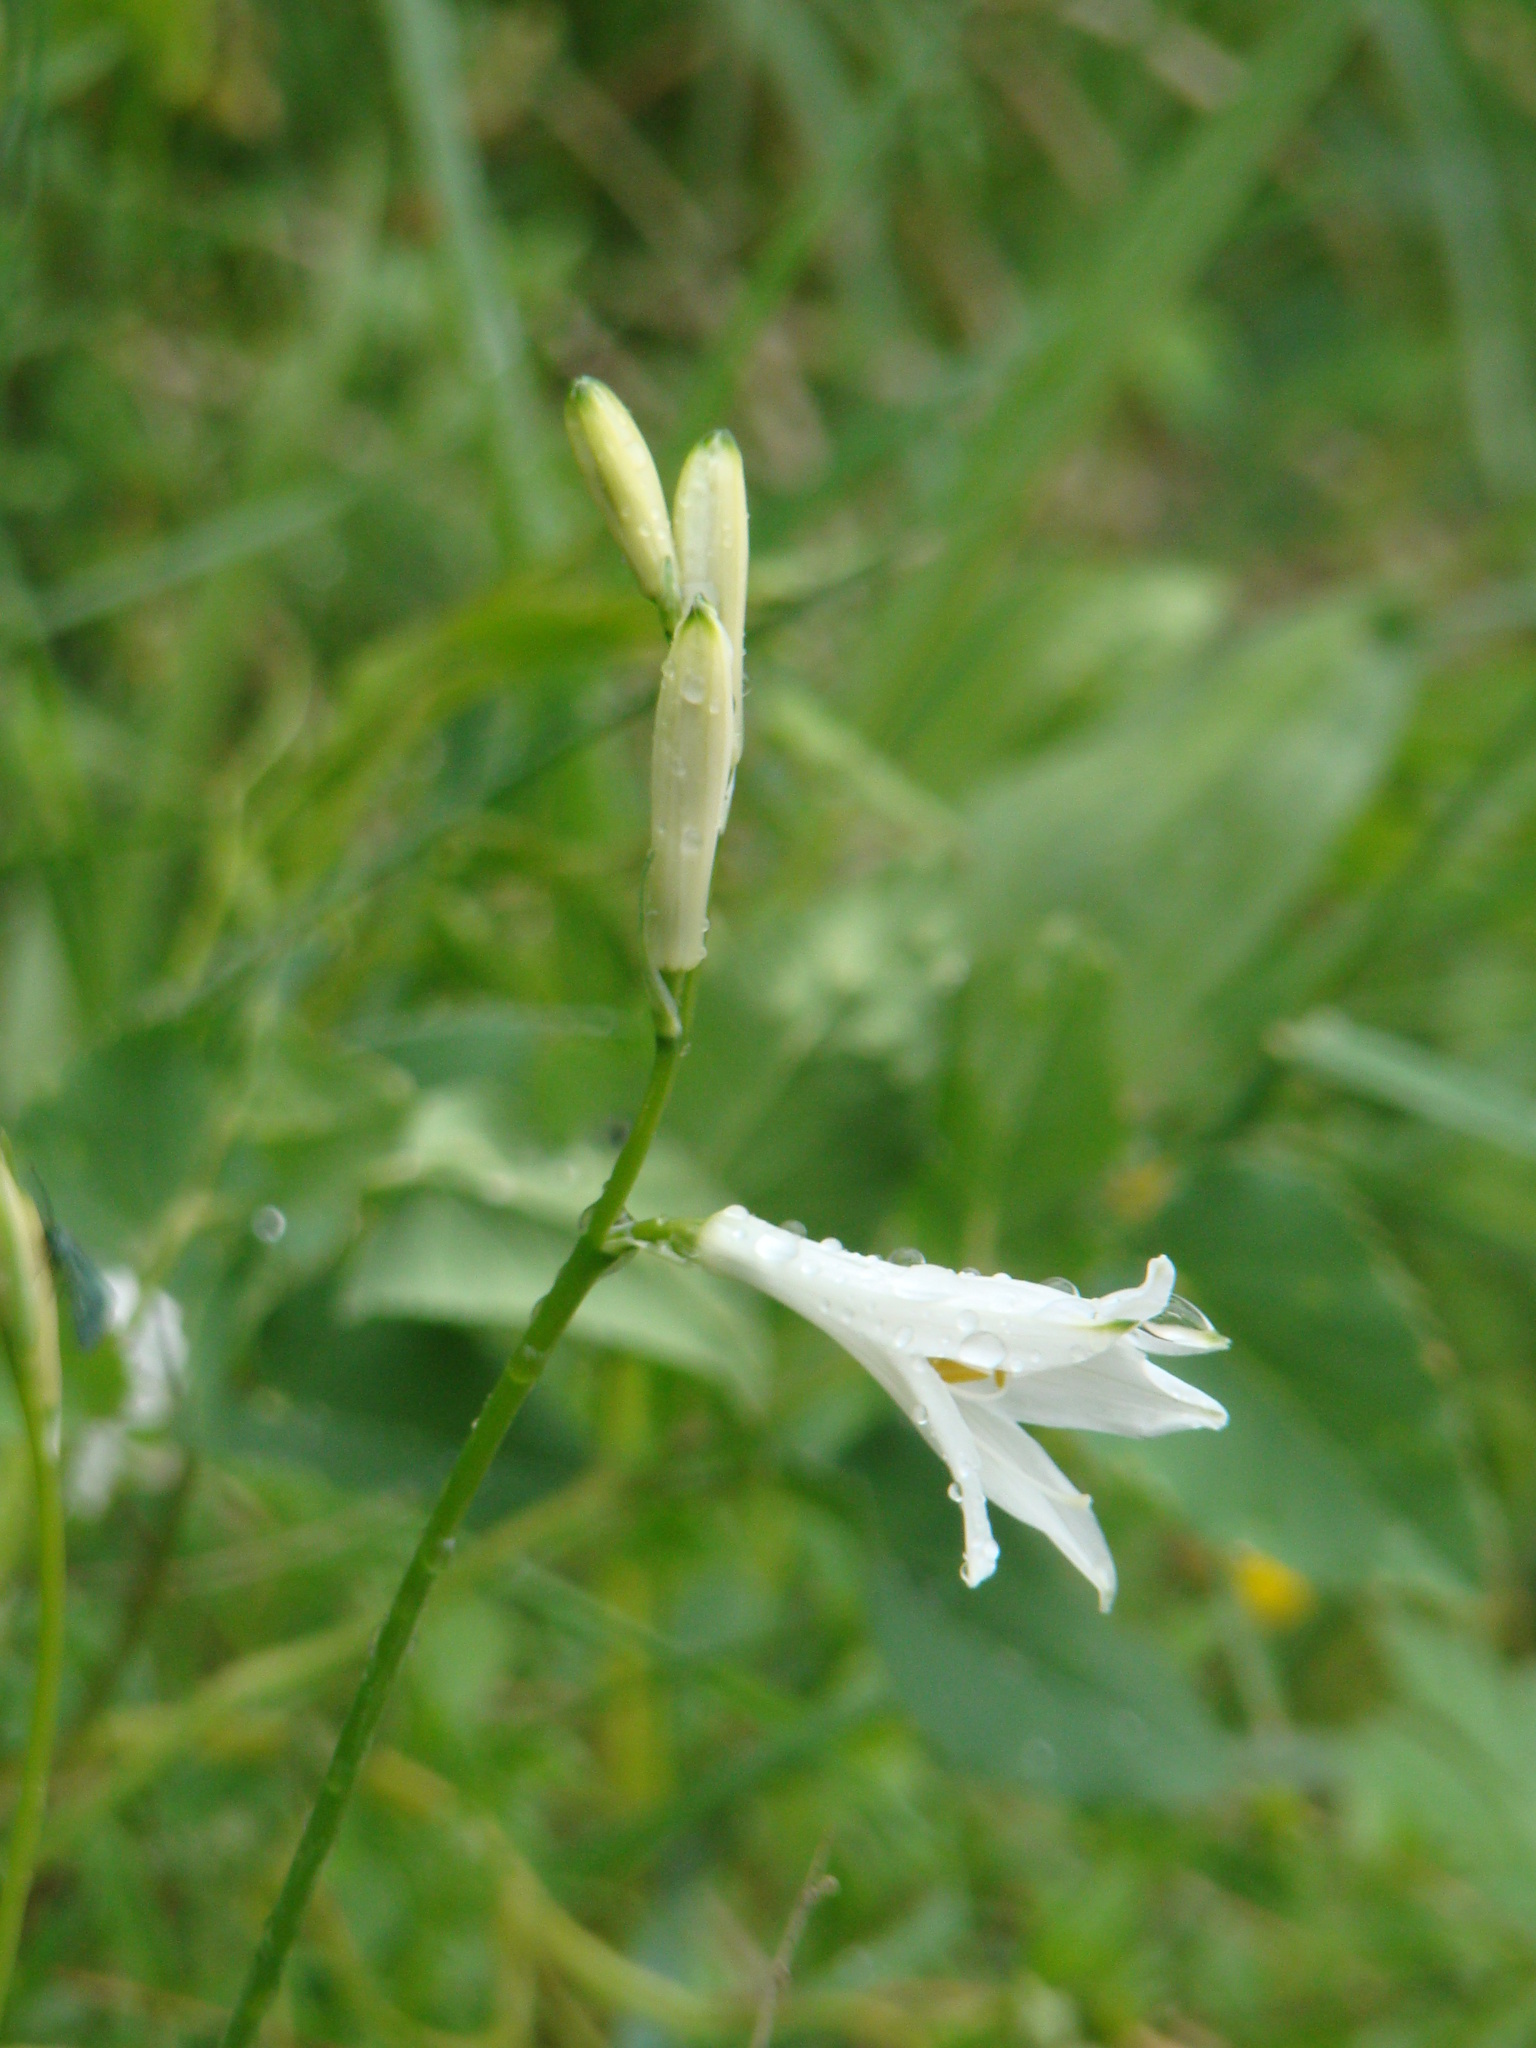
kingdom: Plantae
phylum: Tracheophyta
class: Liliopsida
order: Asparagales
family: Asparagaceae
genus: Paradisea
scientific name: Paradisea liliastrum
